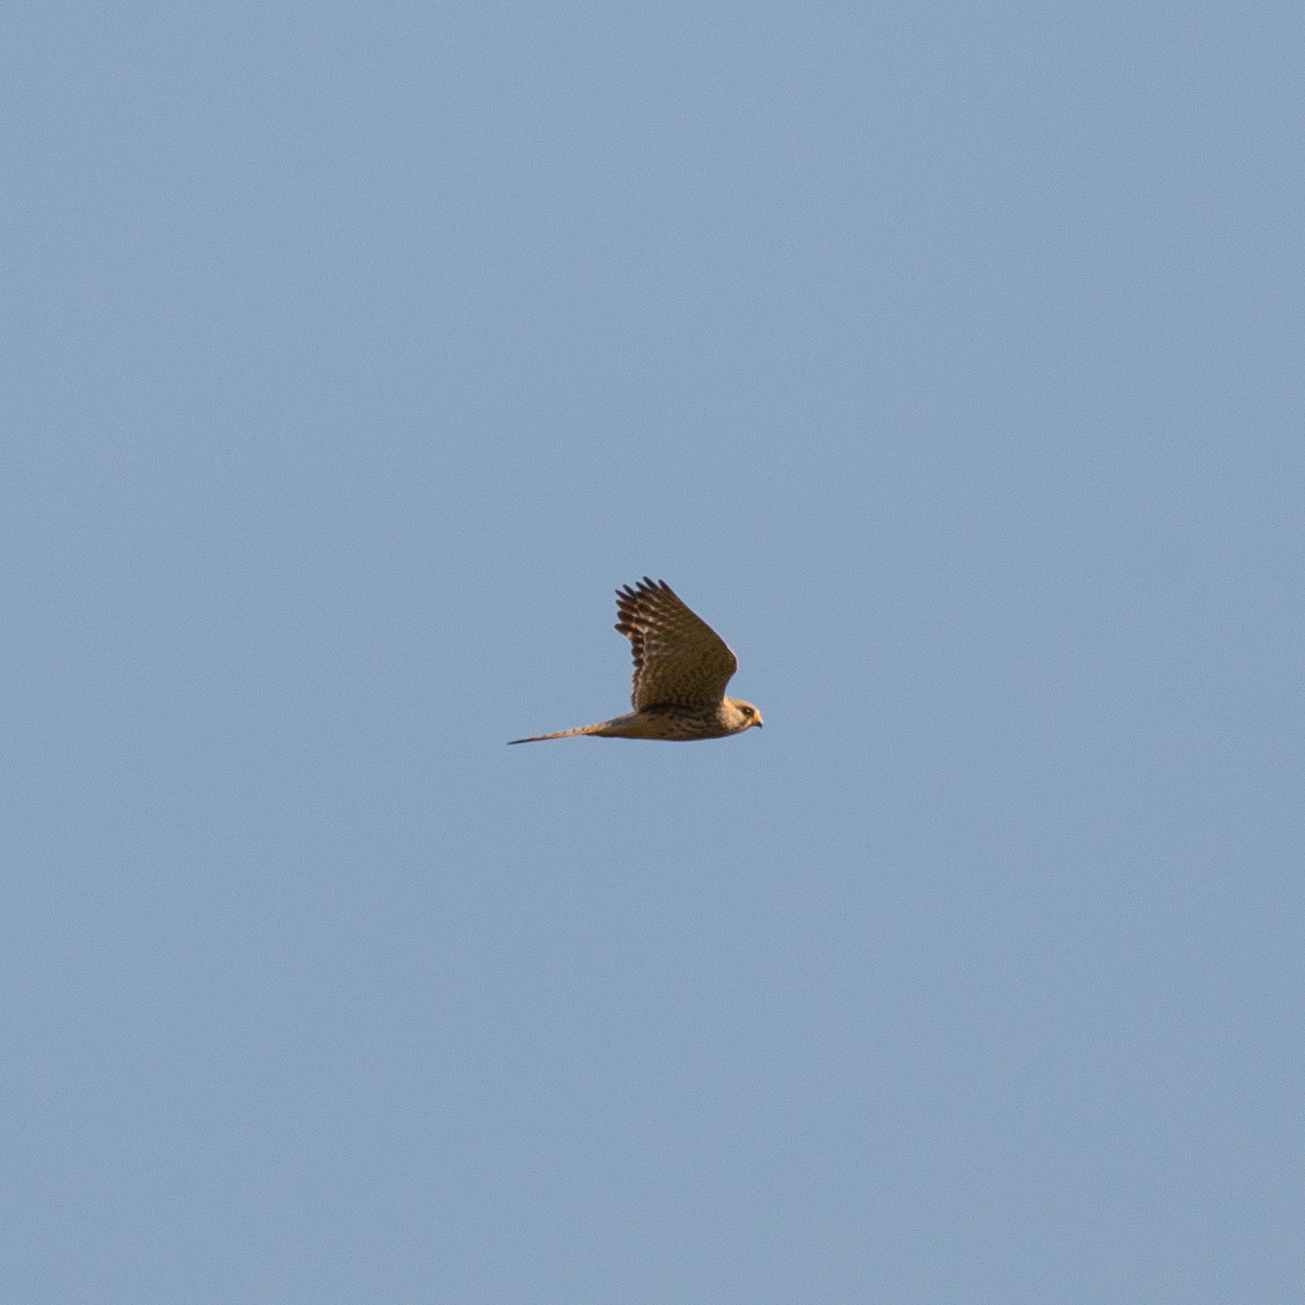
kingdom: Animalia
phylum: Chordata
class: Aves
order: Falconiformes
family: Falconidae
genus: Falco
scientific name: Falco tinnunculus
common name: Common kestrel
